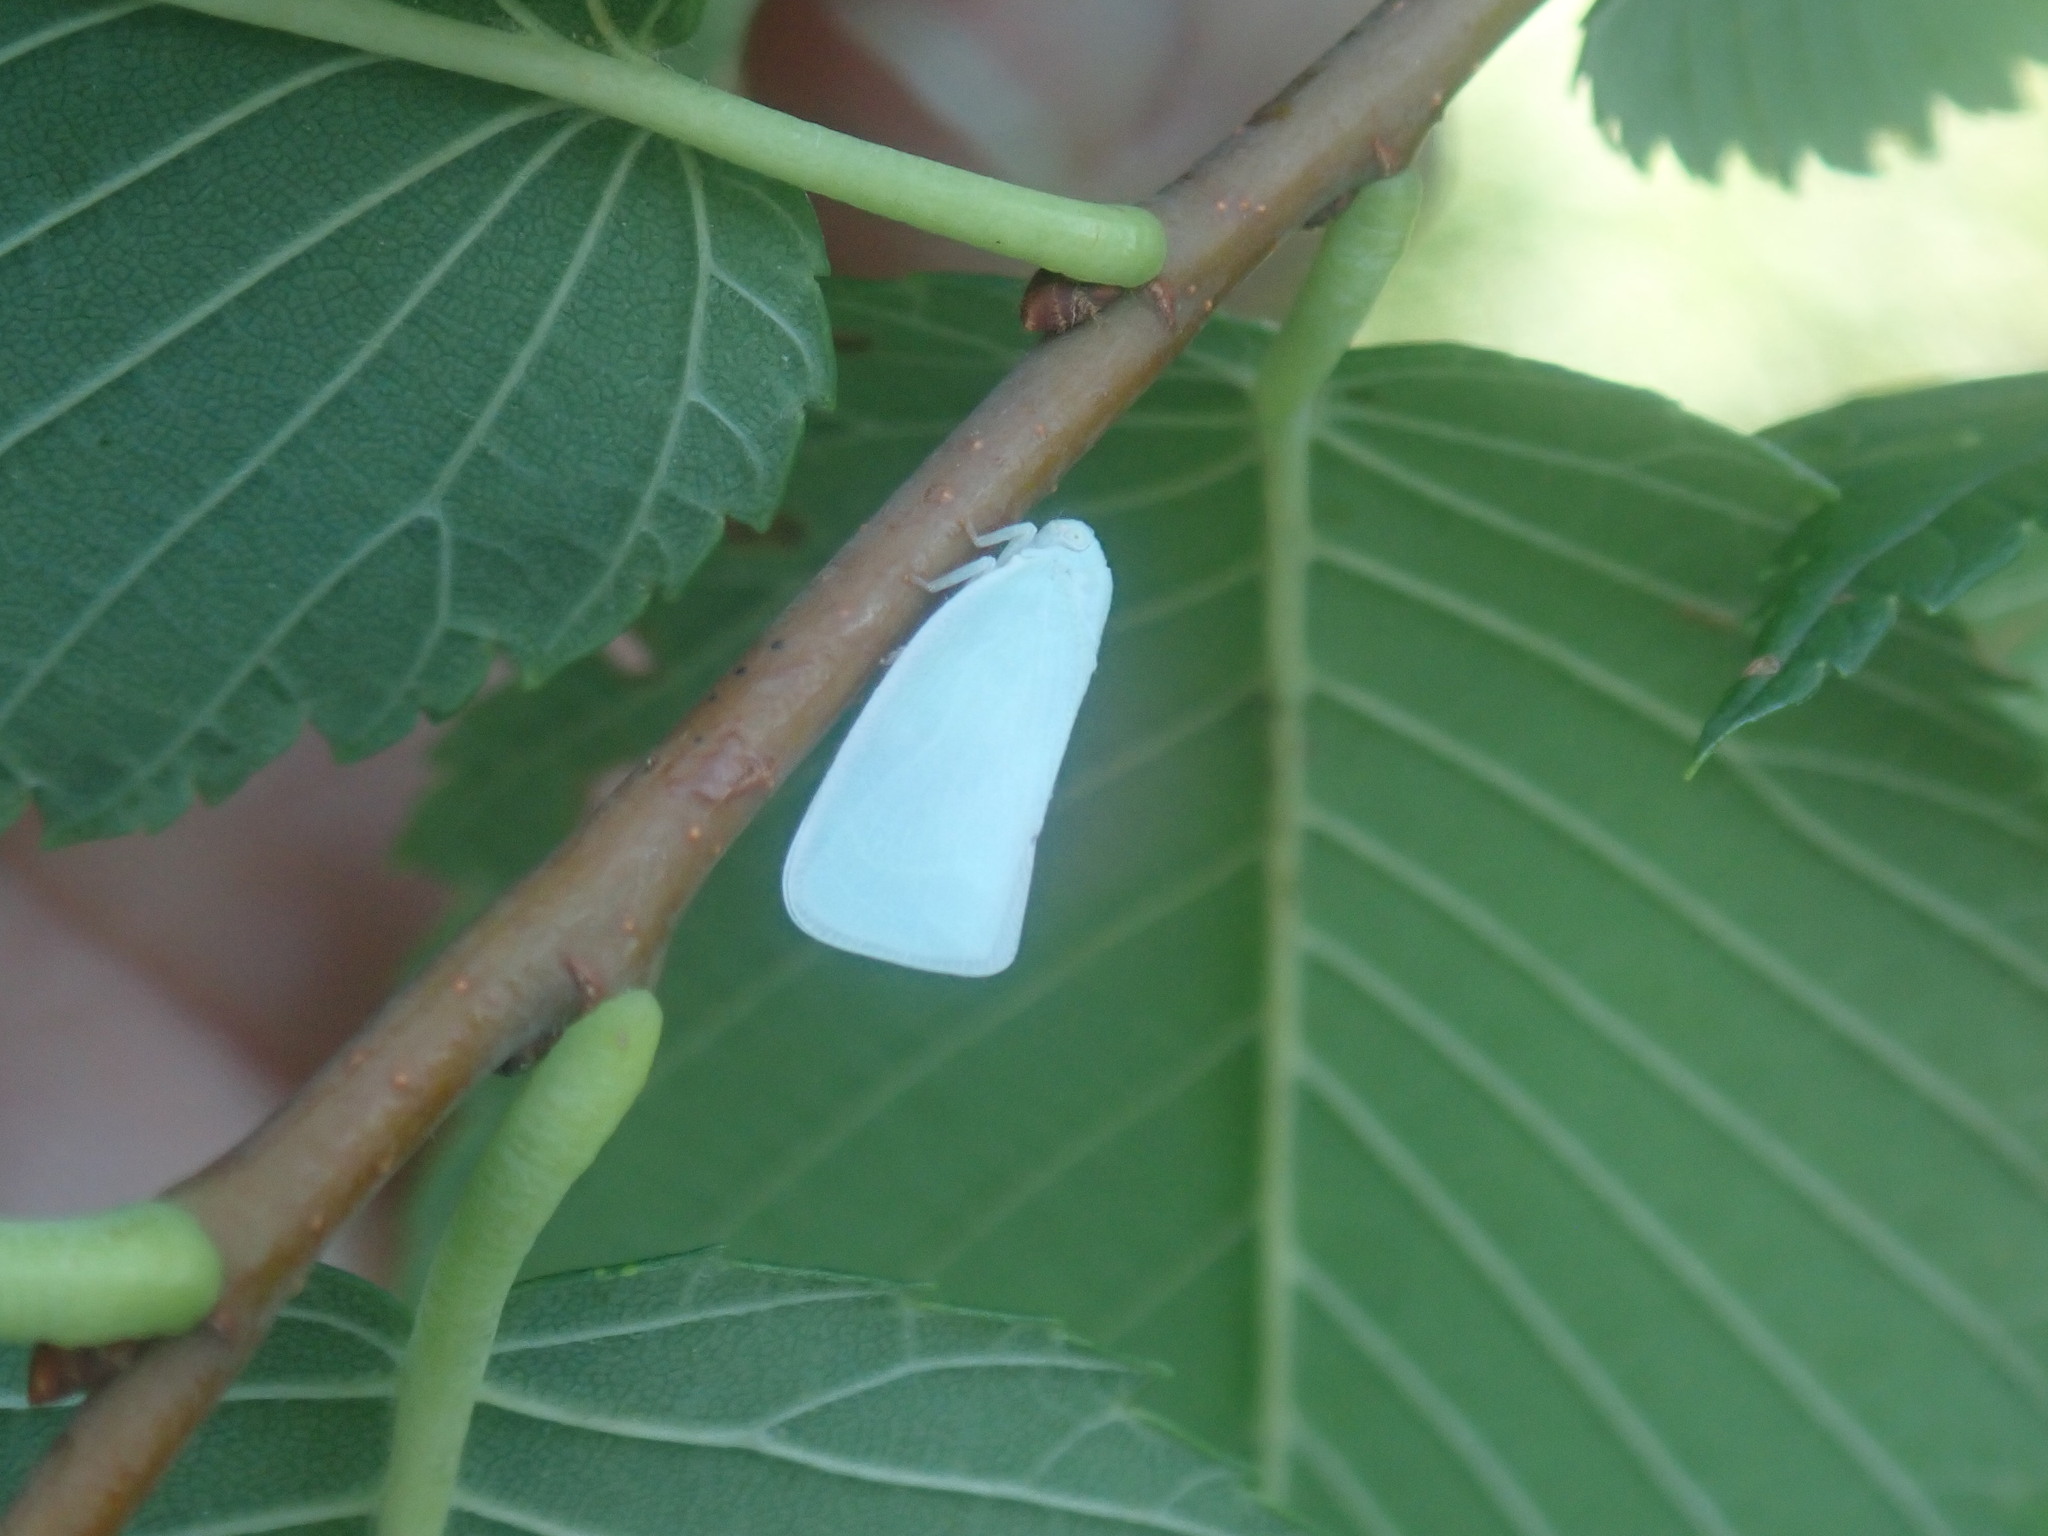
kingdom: Animalia
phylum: Arthropoda
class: Insecta
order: Hemiptera
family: Flatidae
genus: Flatormenis
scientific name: Flatormenis proxima
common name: Northern flatid planthopper
